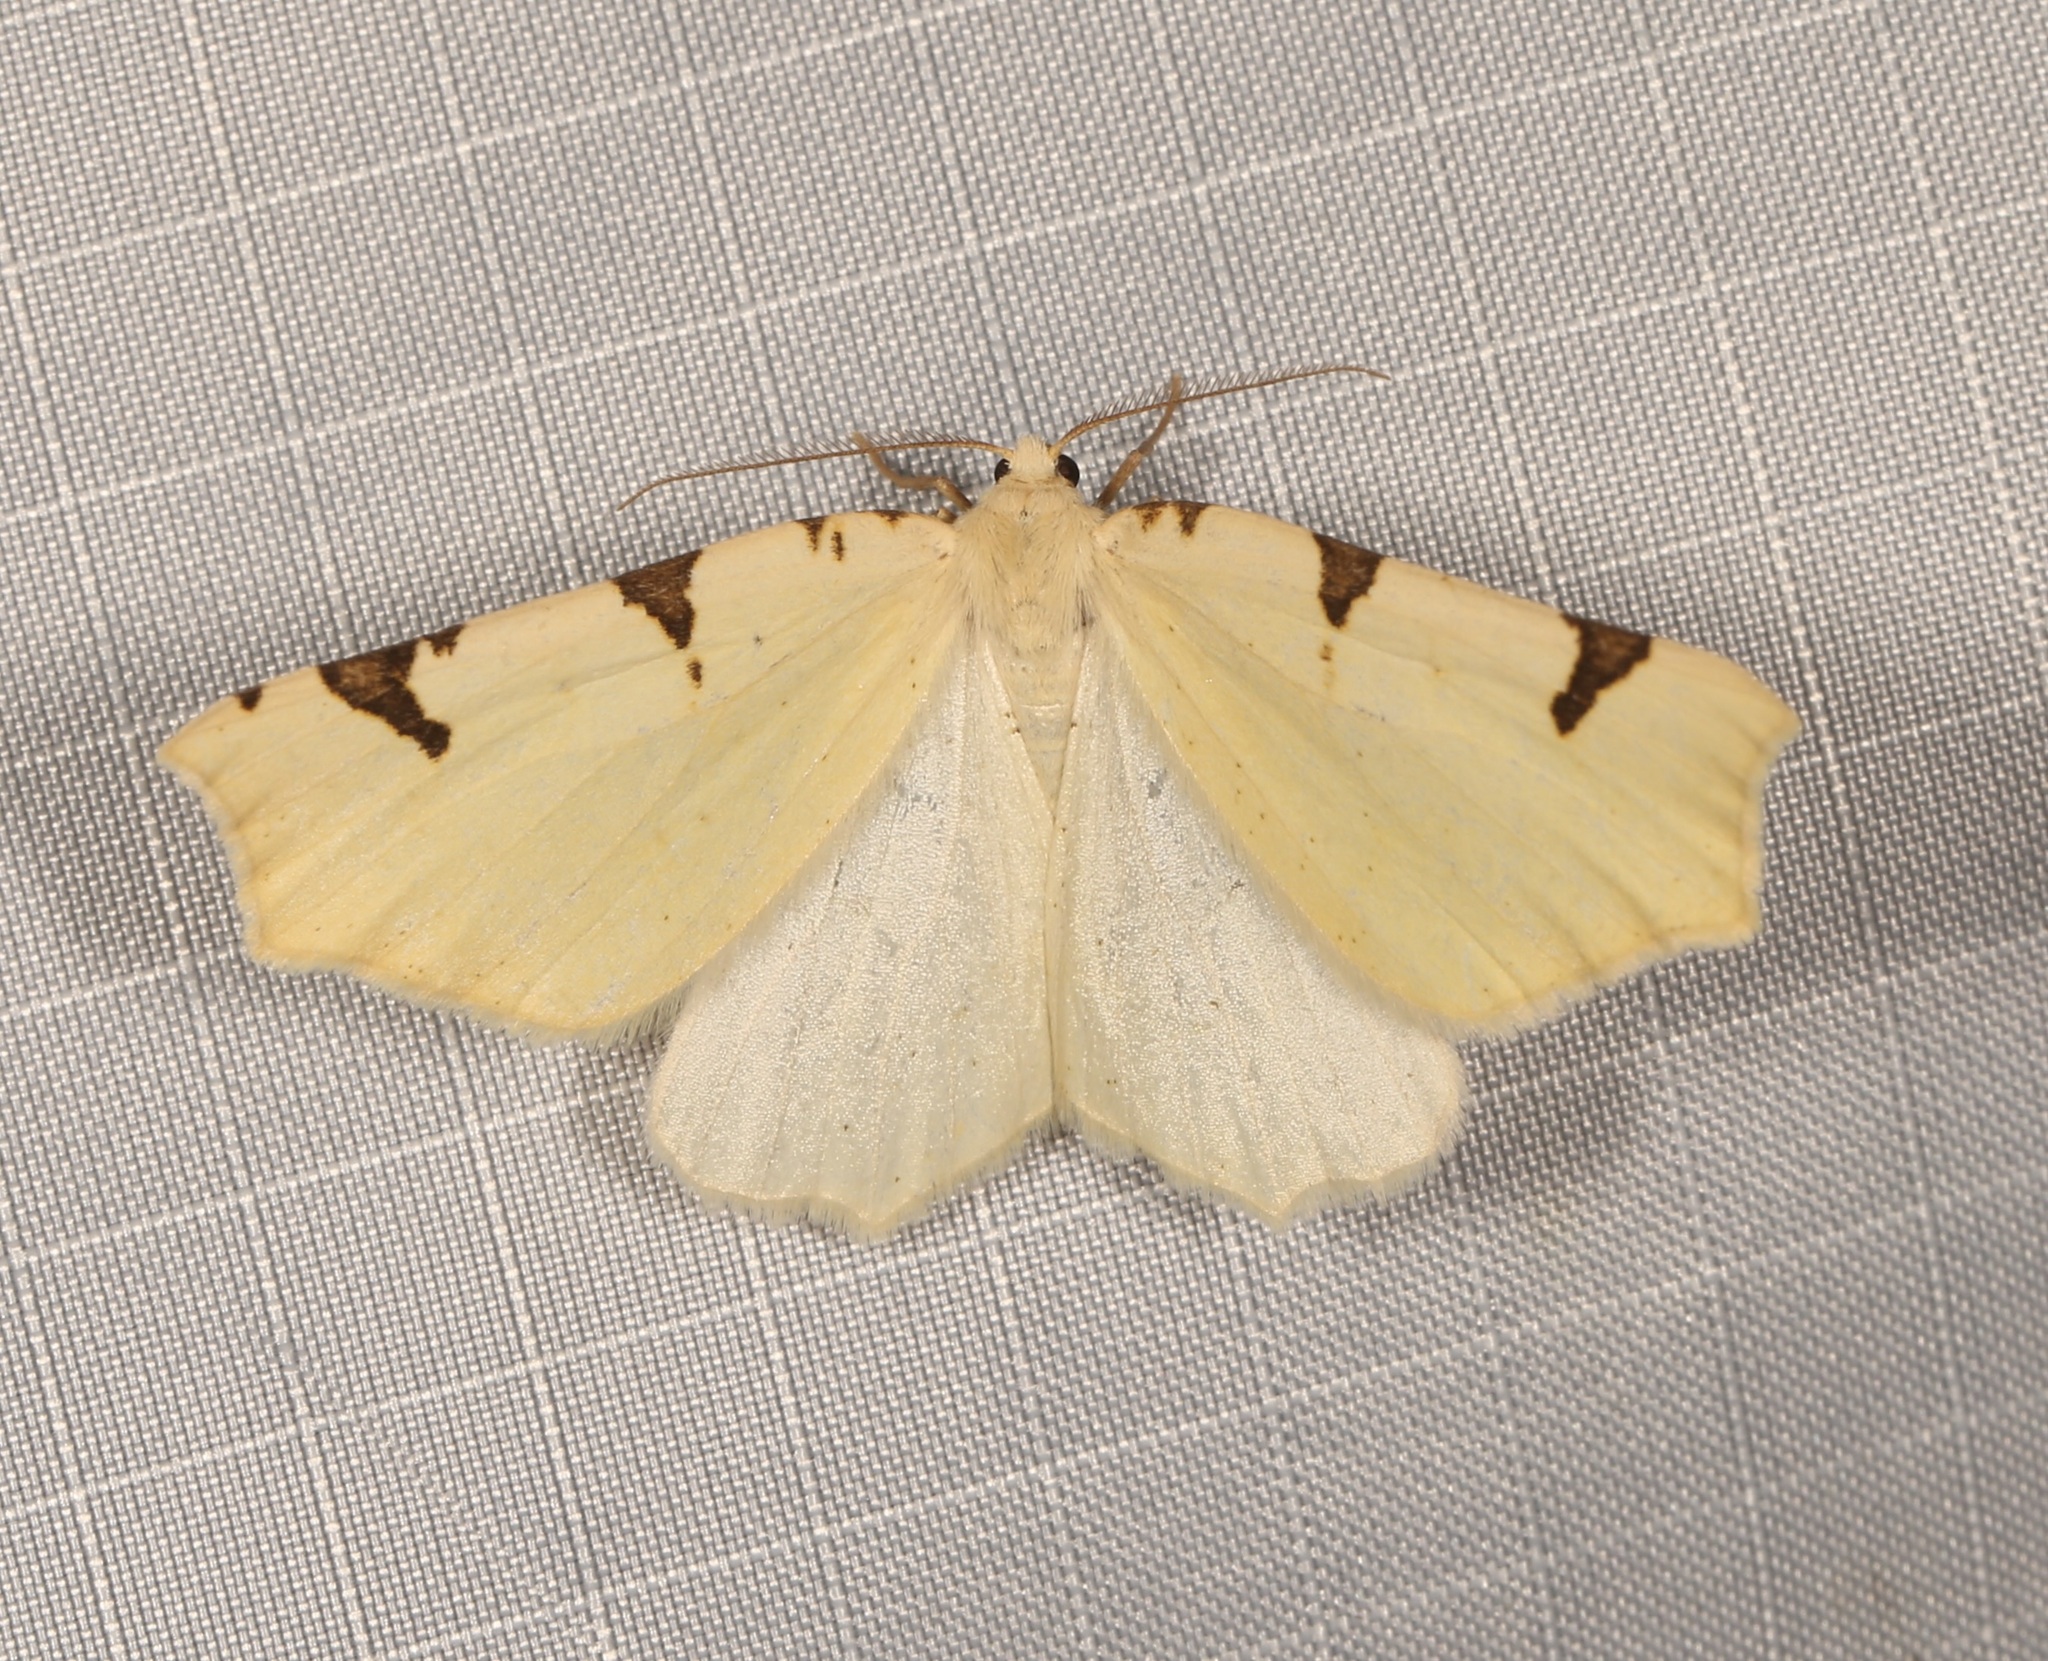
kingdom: Animalia
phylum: Arthropoda
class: Insecta
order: Lepidoptera
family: Geometridae
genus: Neoterpes
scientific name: Neoterpes trianguliferata
